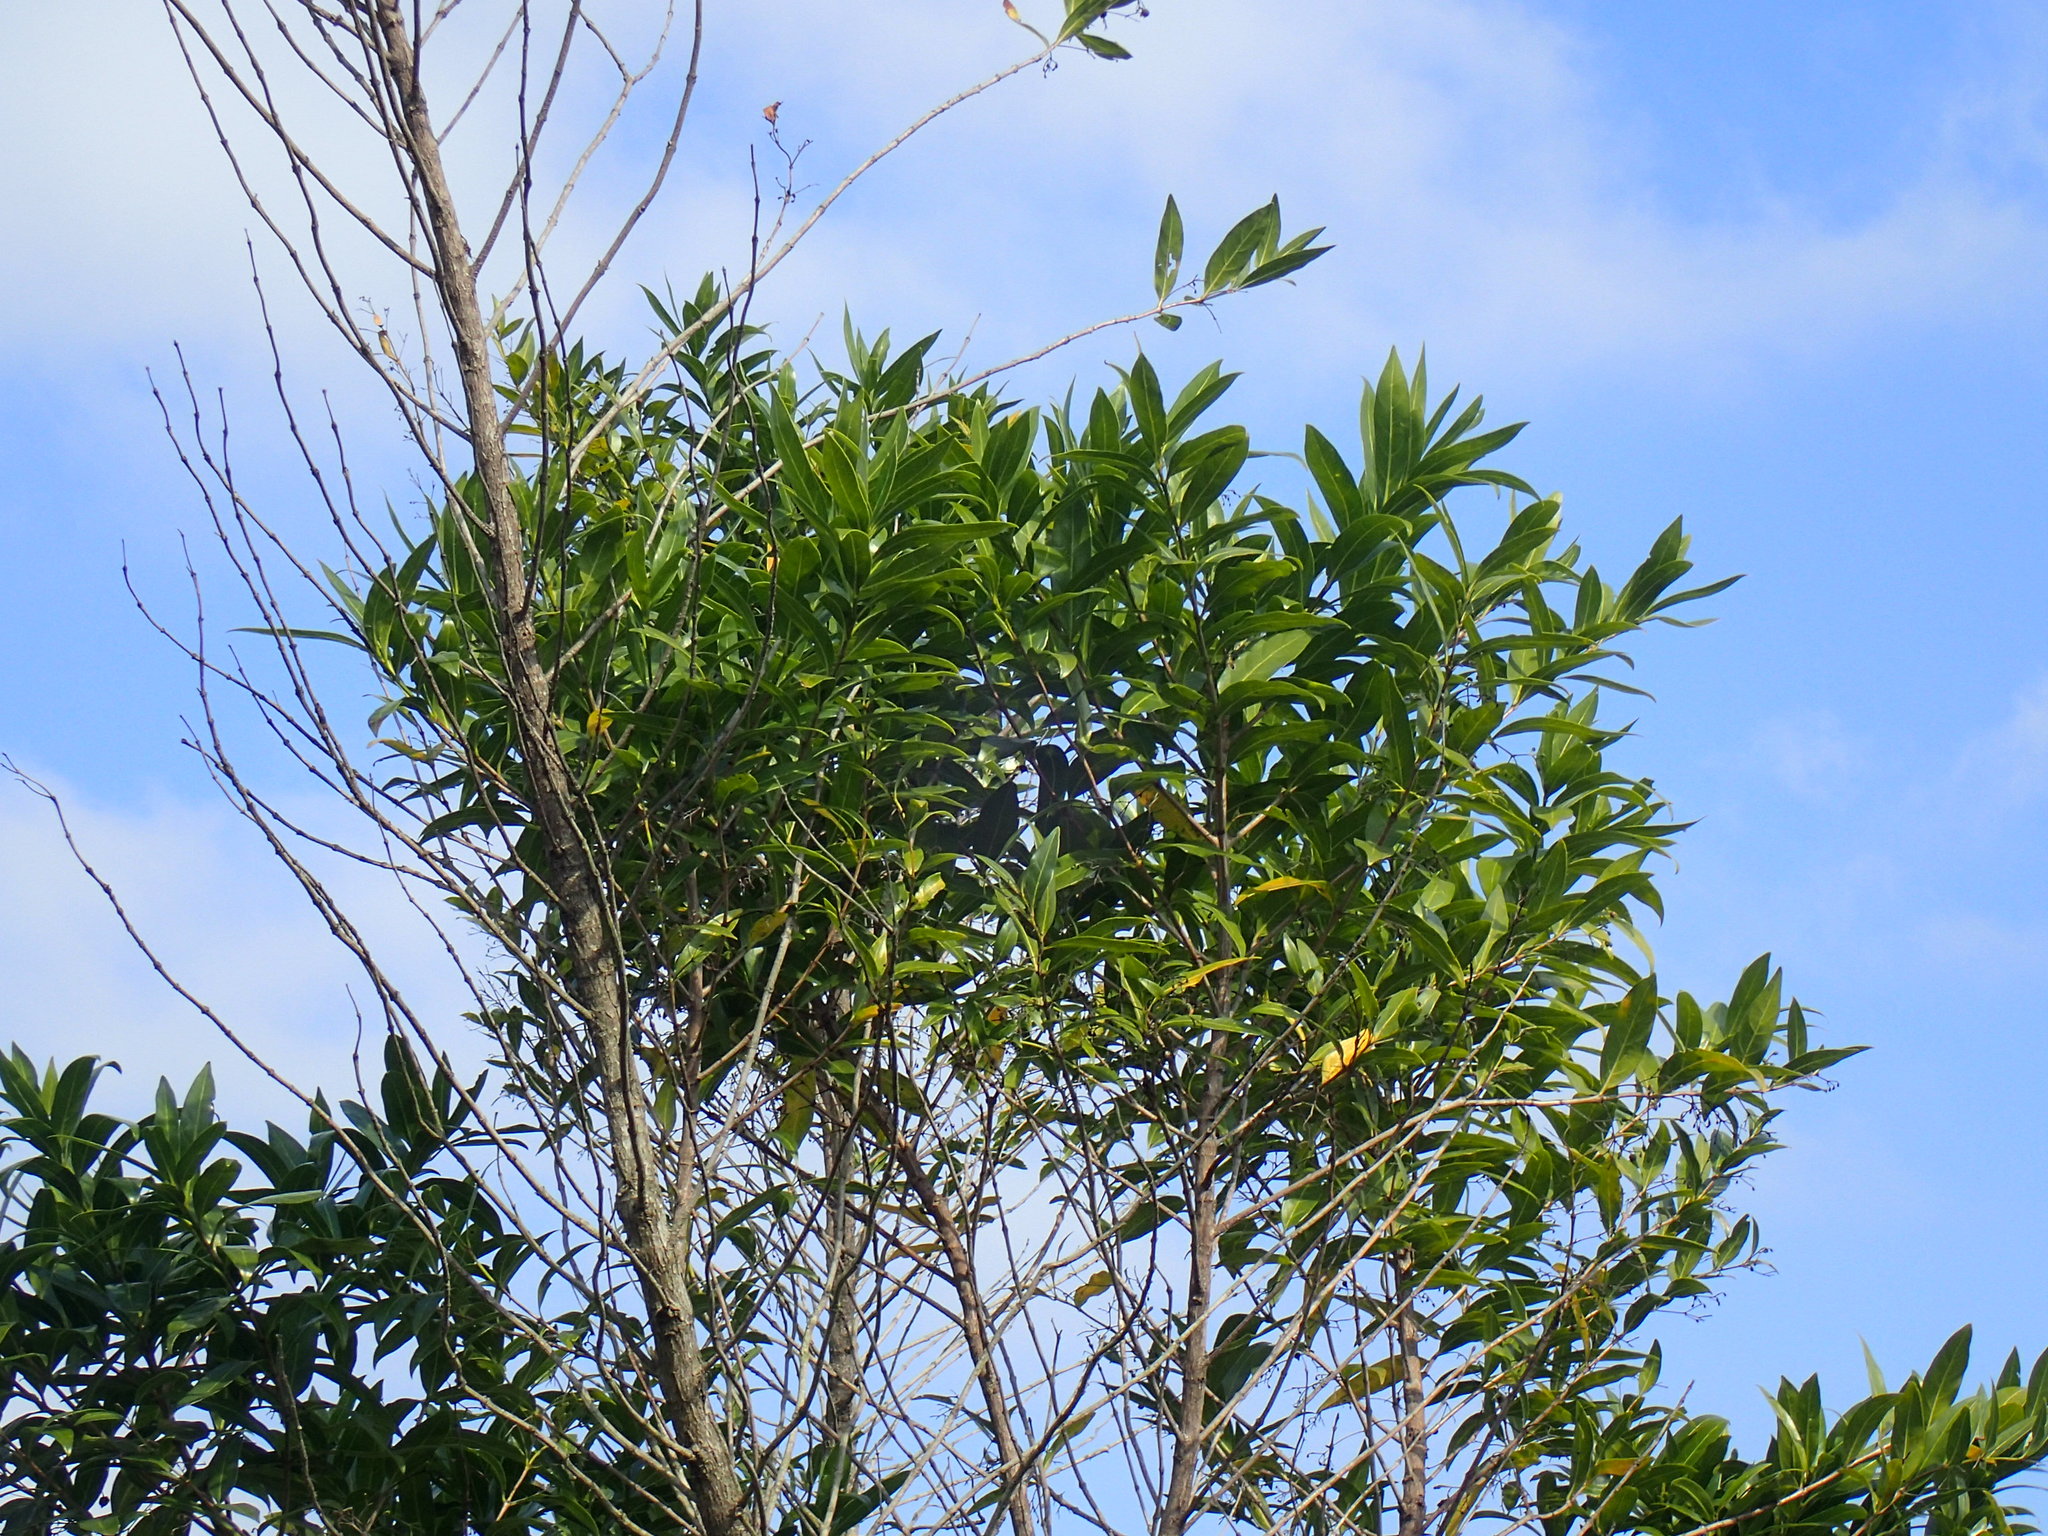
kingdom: Plantae
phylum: Tracheophyta
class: Magnoliopsida
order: Gentianales
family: Rubiaceae
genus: Kraussia
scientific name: Kraussia floribunda
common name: Rhino-coffee
